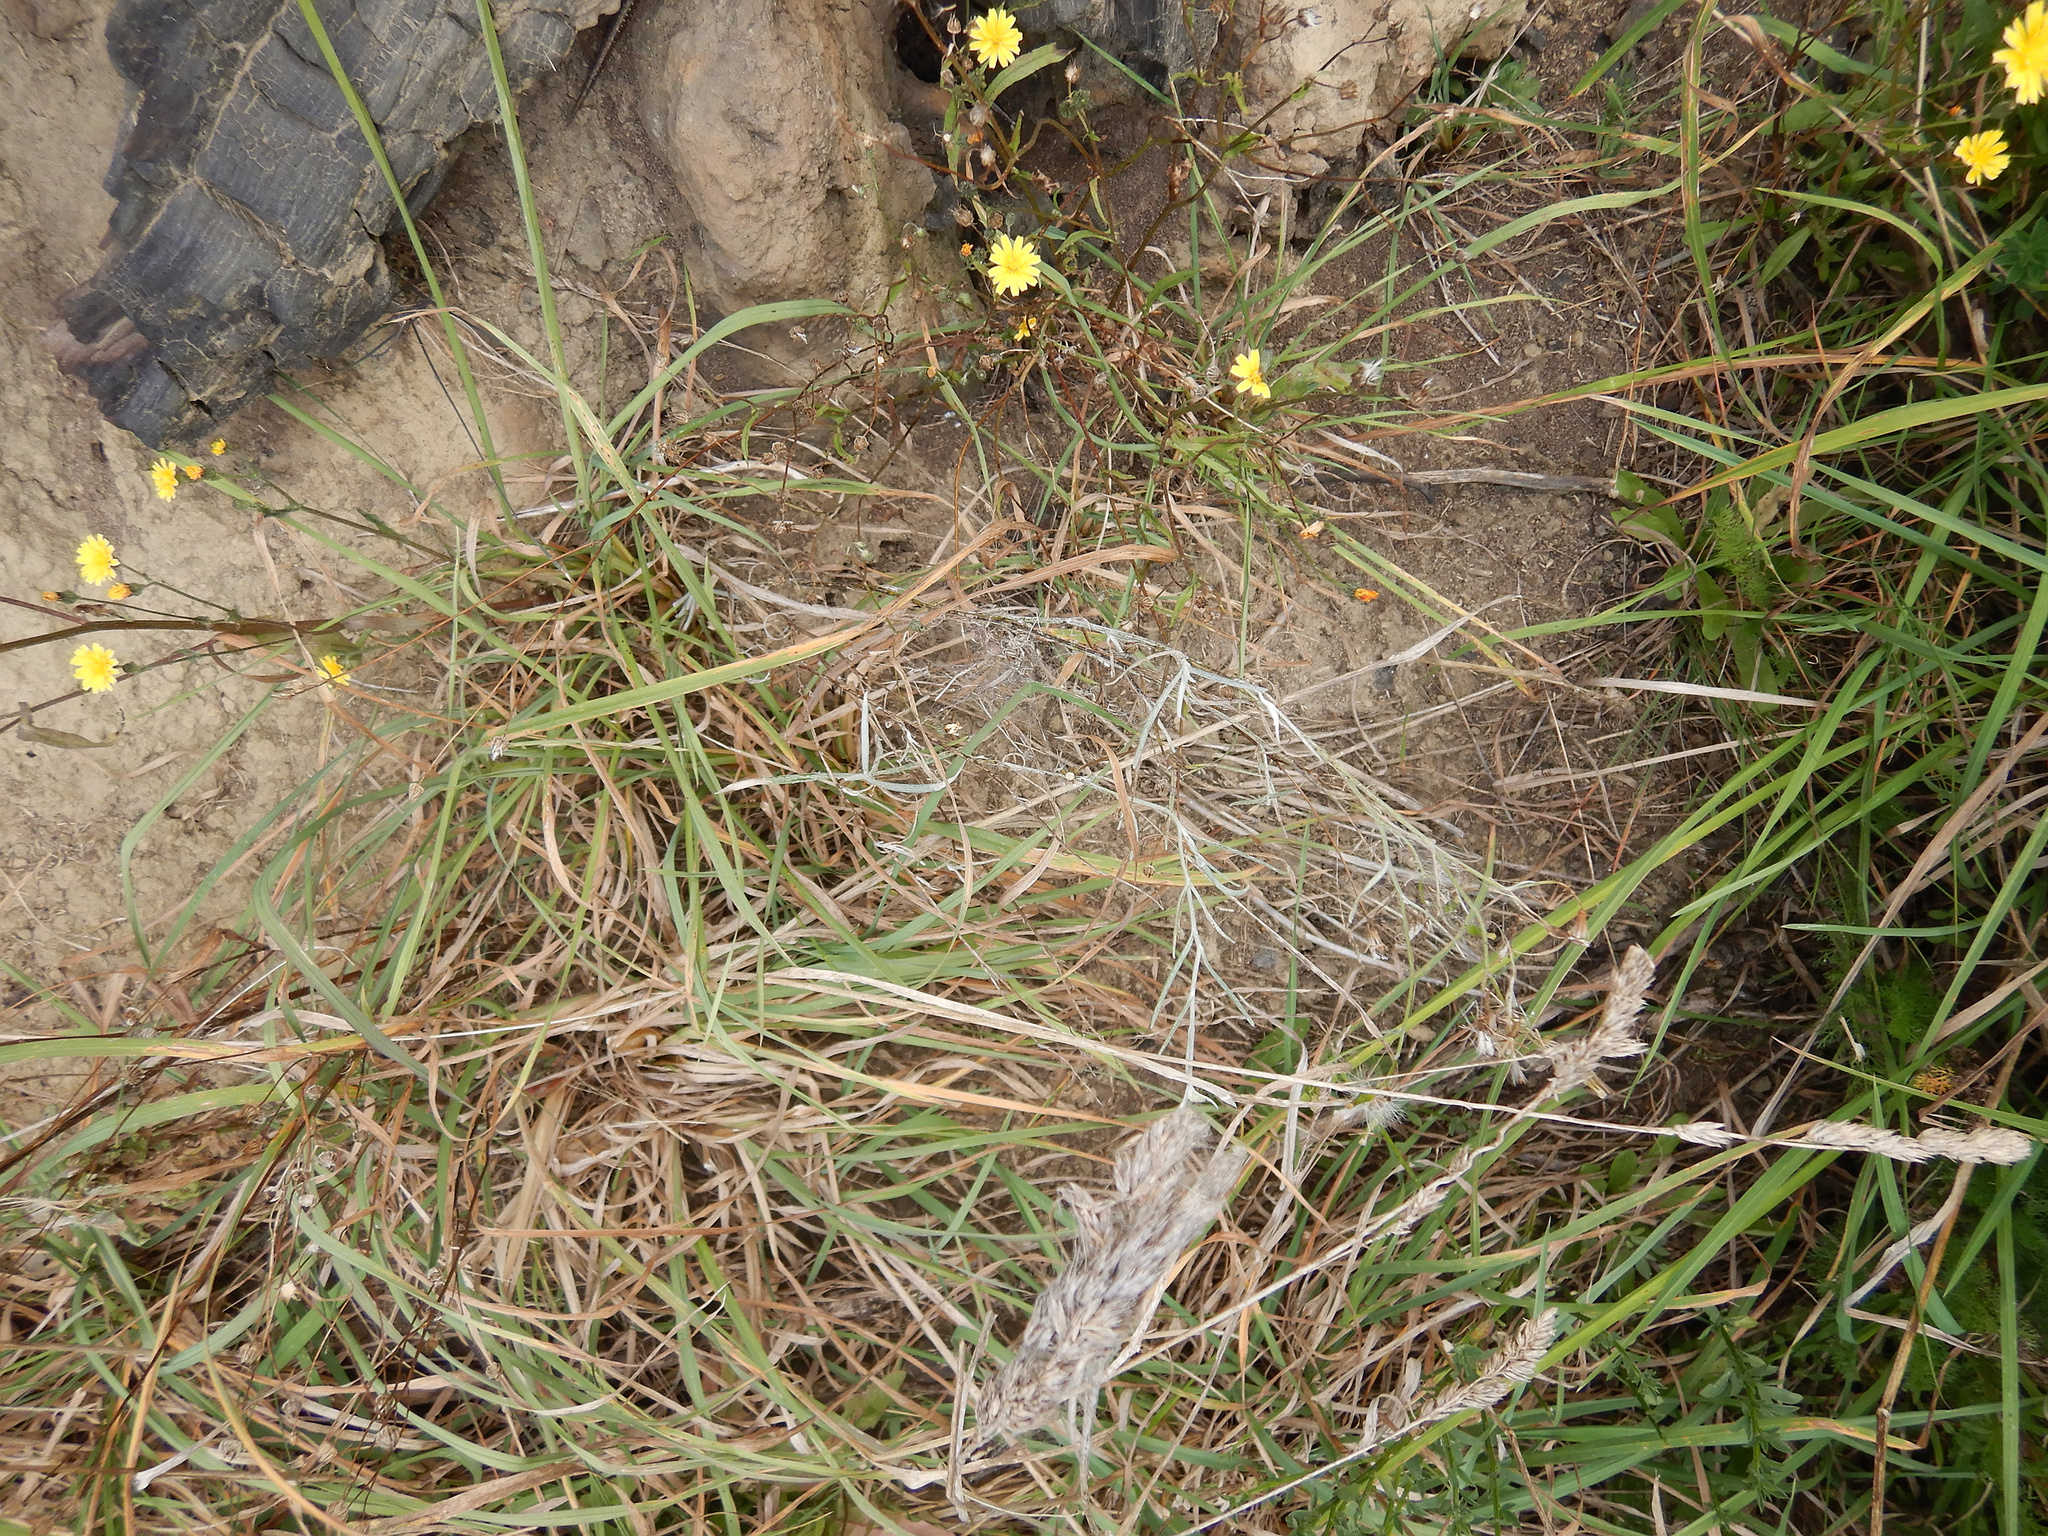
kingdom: Plantae
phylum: Tracheophyta
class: Magnoliopsida
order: Asterales
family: Asteraceae
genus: Senecio
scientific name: Senecio quadridentatus
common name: Cotton fireweed
